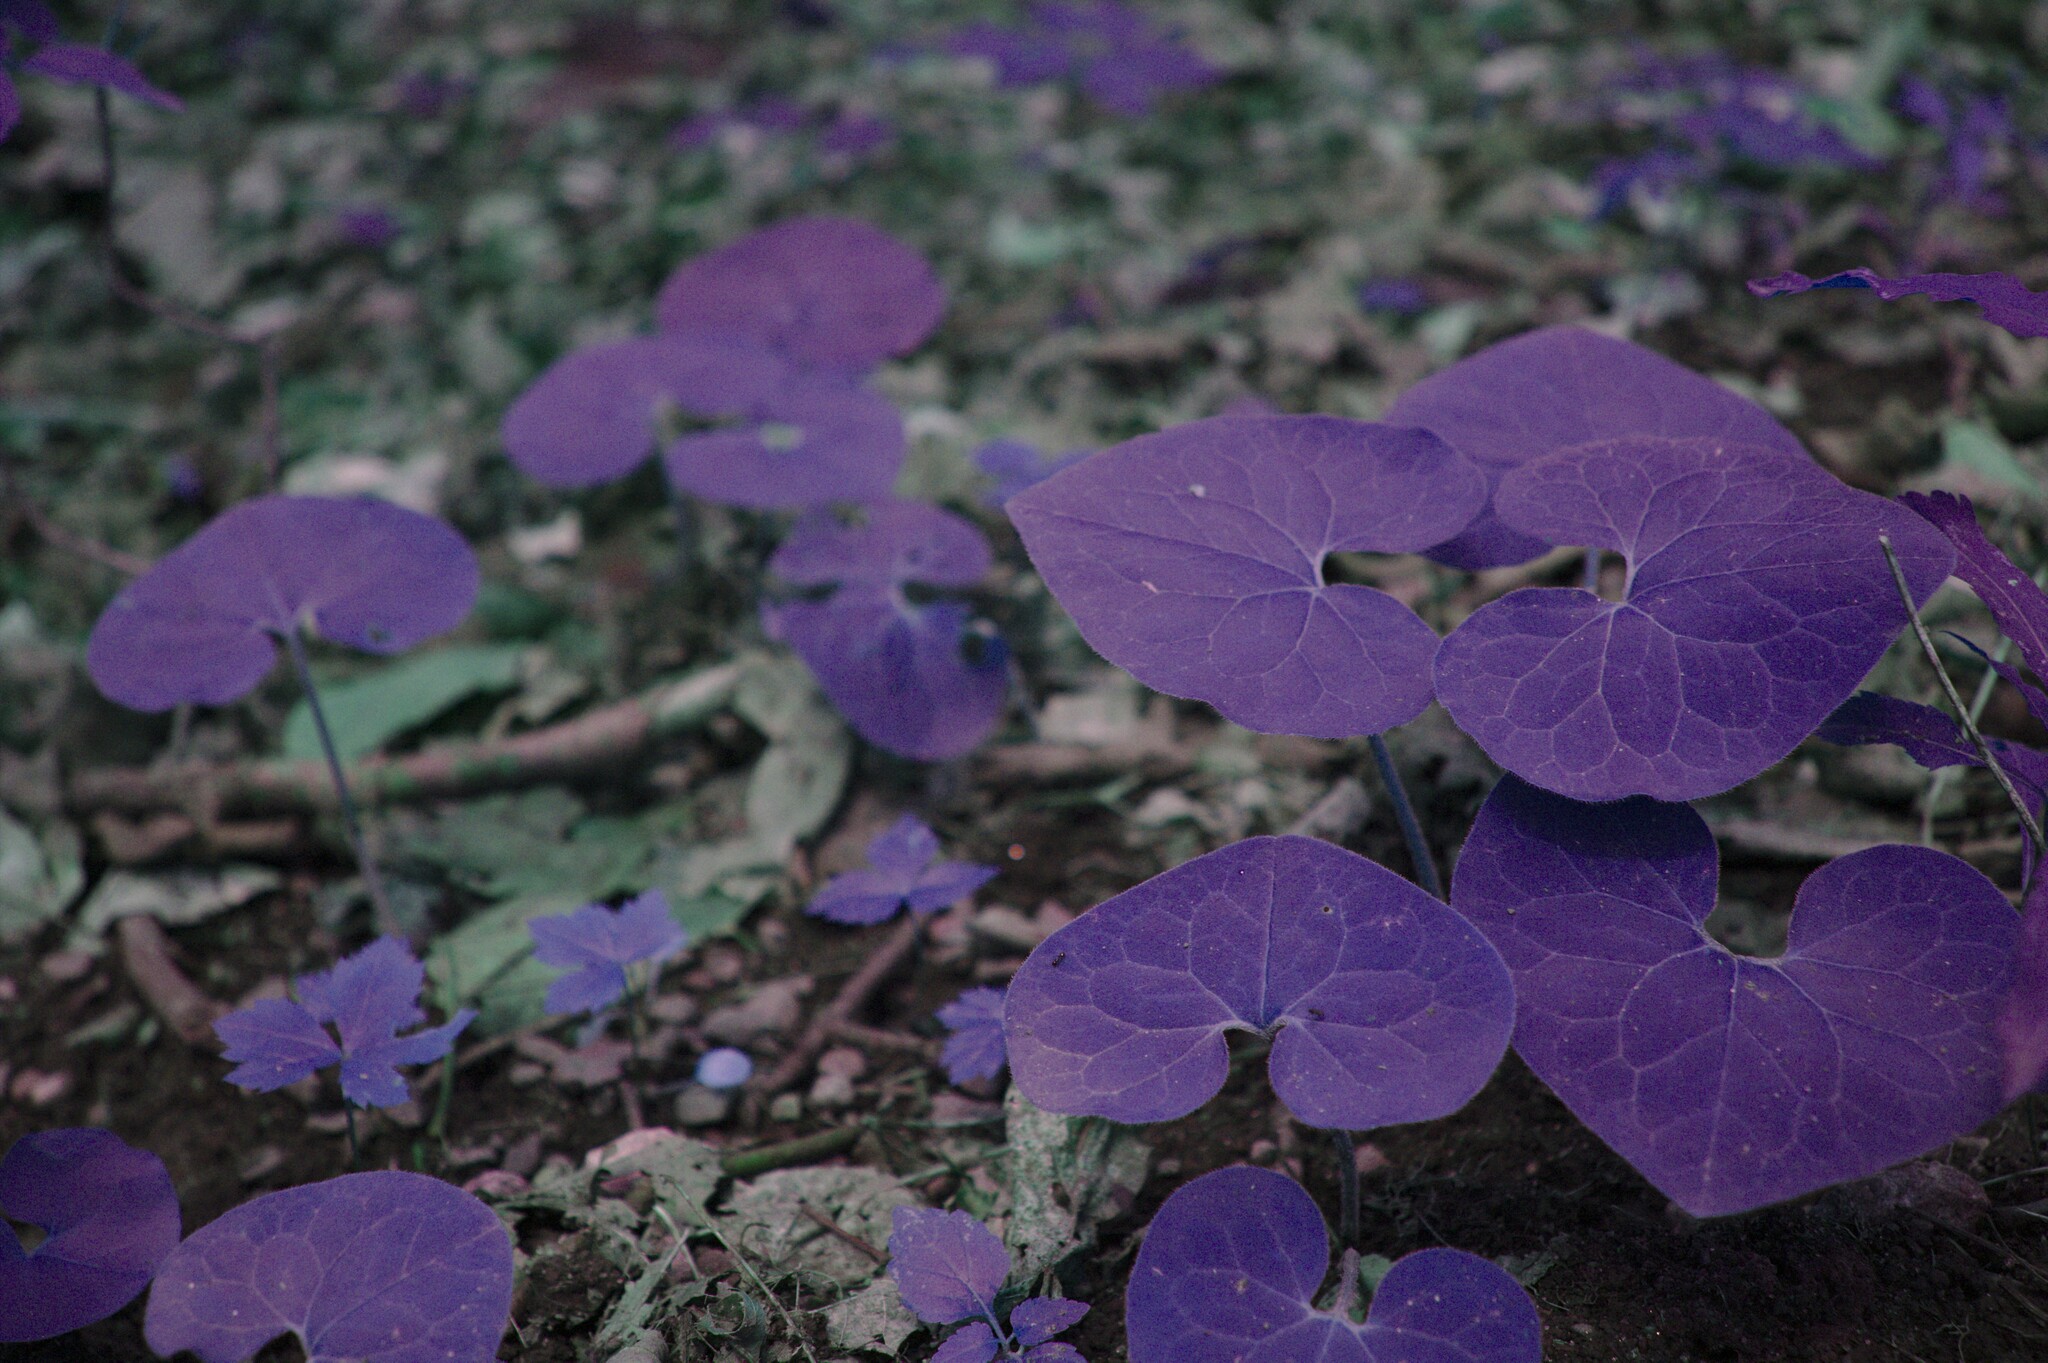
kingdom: Plantae
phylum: Tracheophyta
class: Magnoliopsida
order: Piperales
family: Aristolochiaceae
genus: Asarum
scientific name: Asarum canadense
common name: Wild ginger
